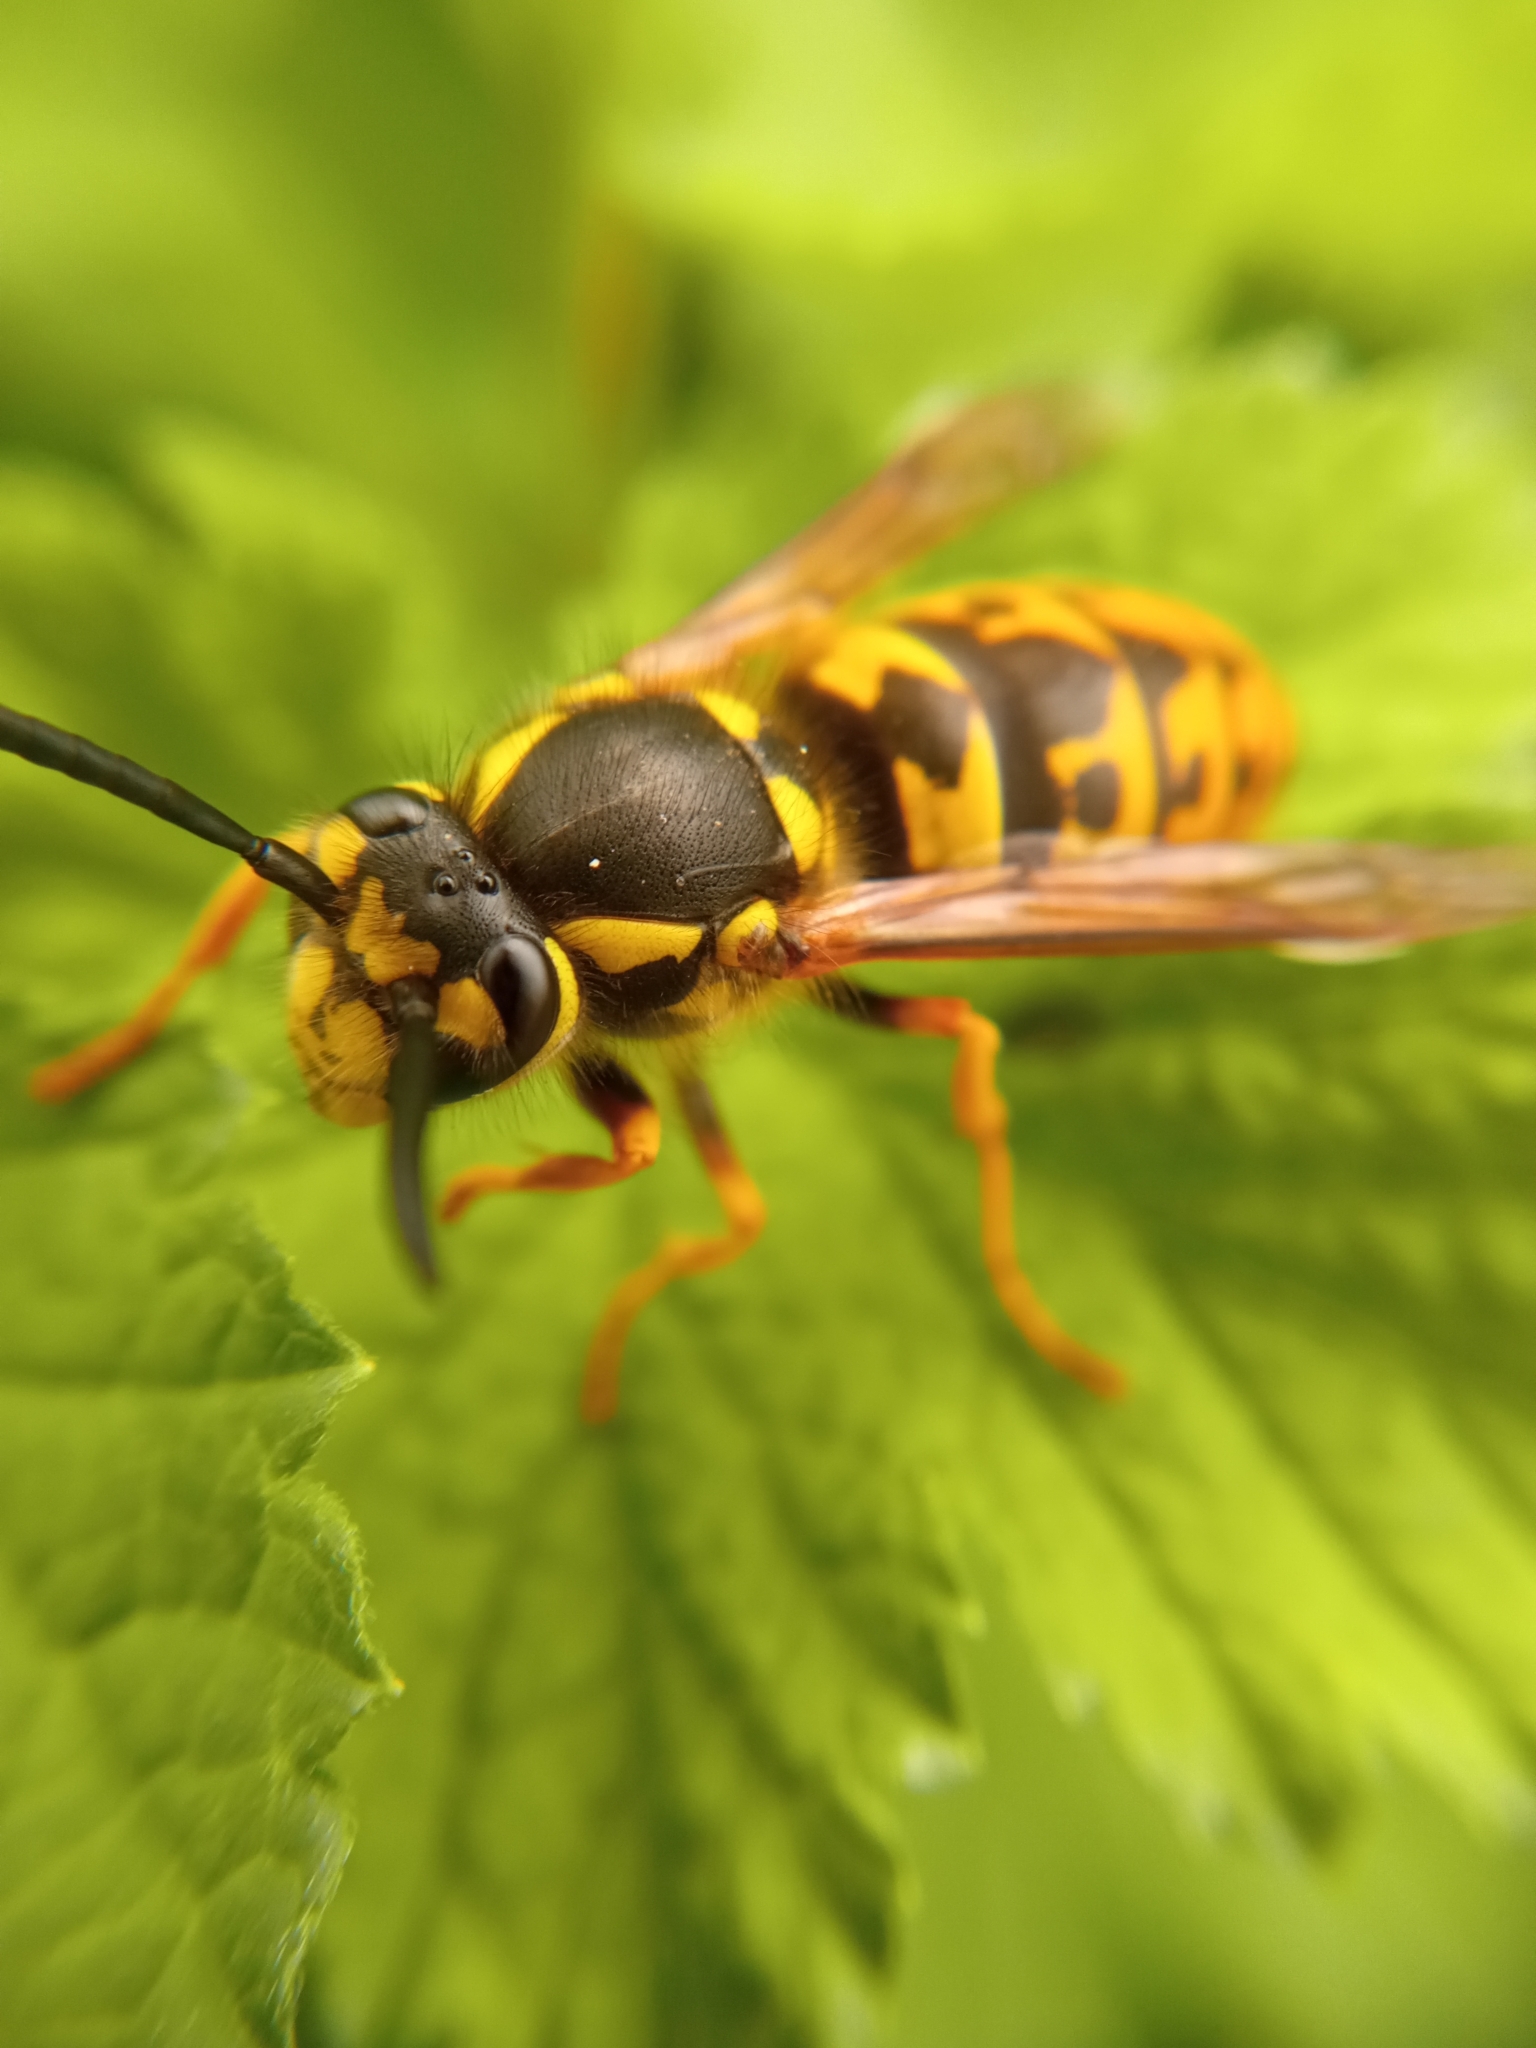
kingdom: Animalia
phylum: Arthropoda
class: Insecta
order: Hymenoptera
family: Vespidae
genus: Vespula
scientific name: Vespula germanica
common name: German wasp
